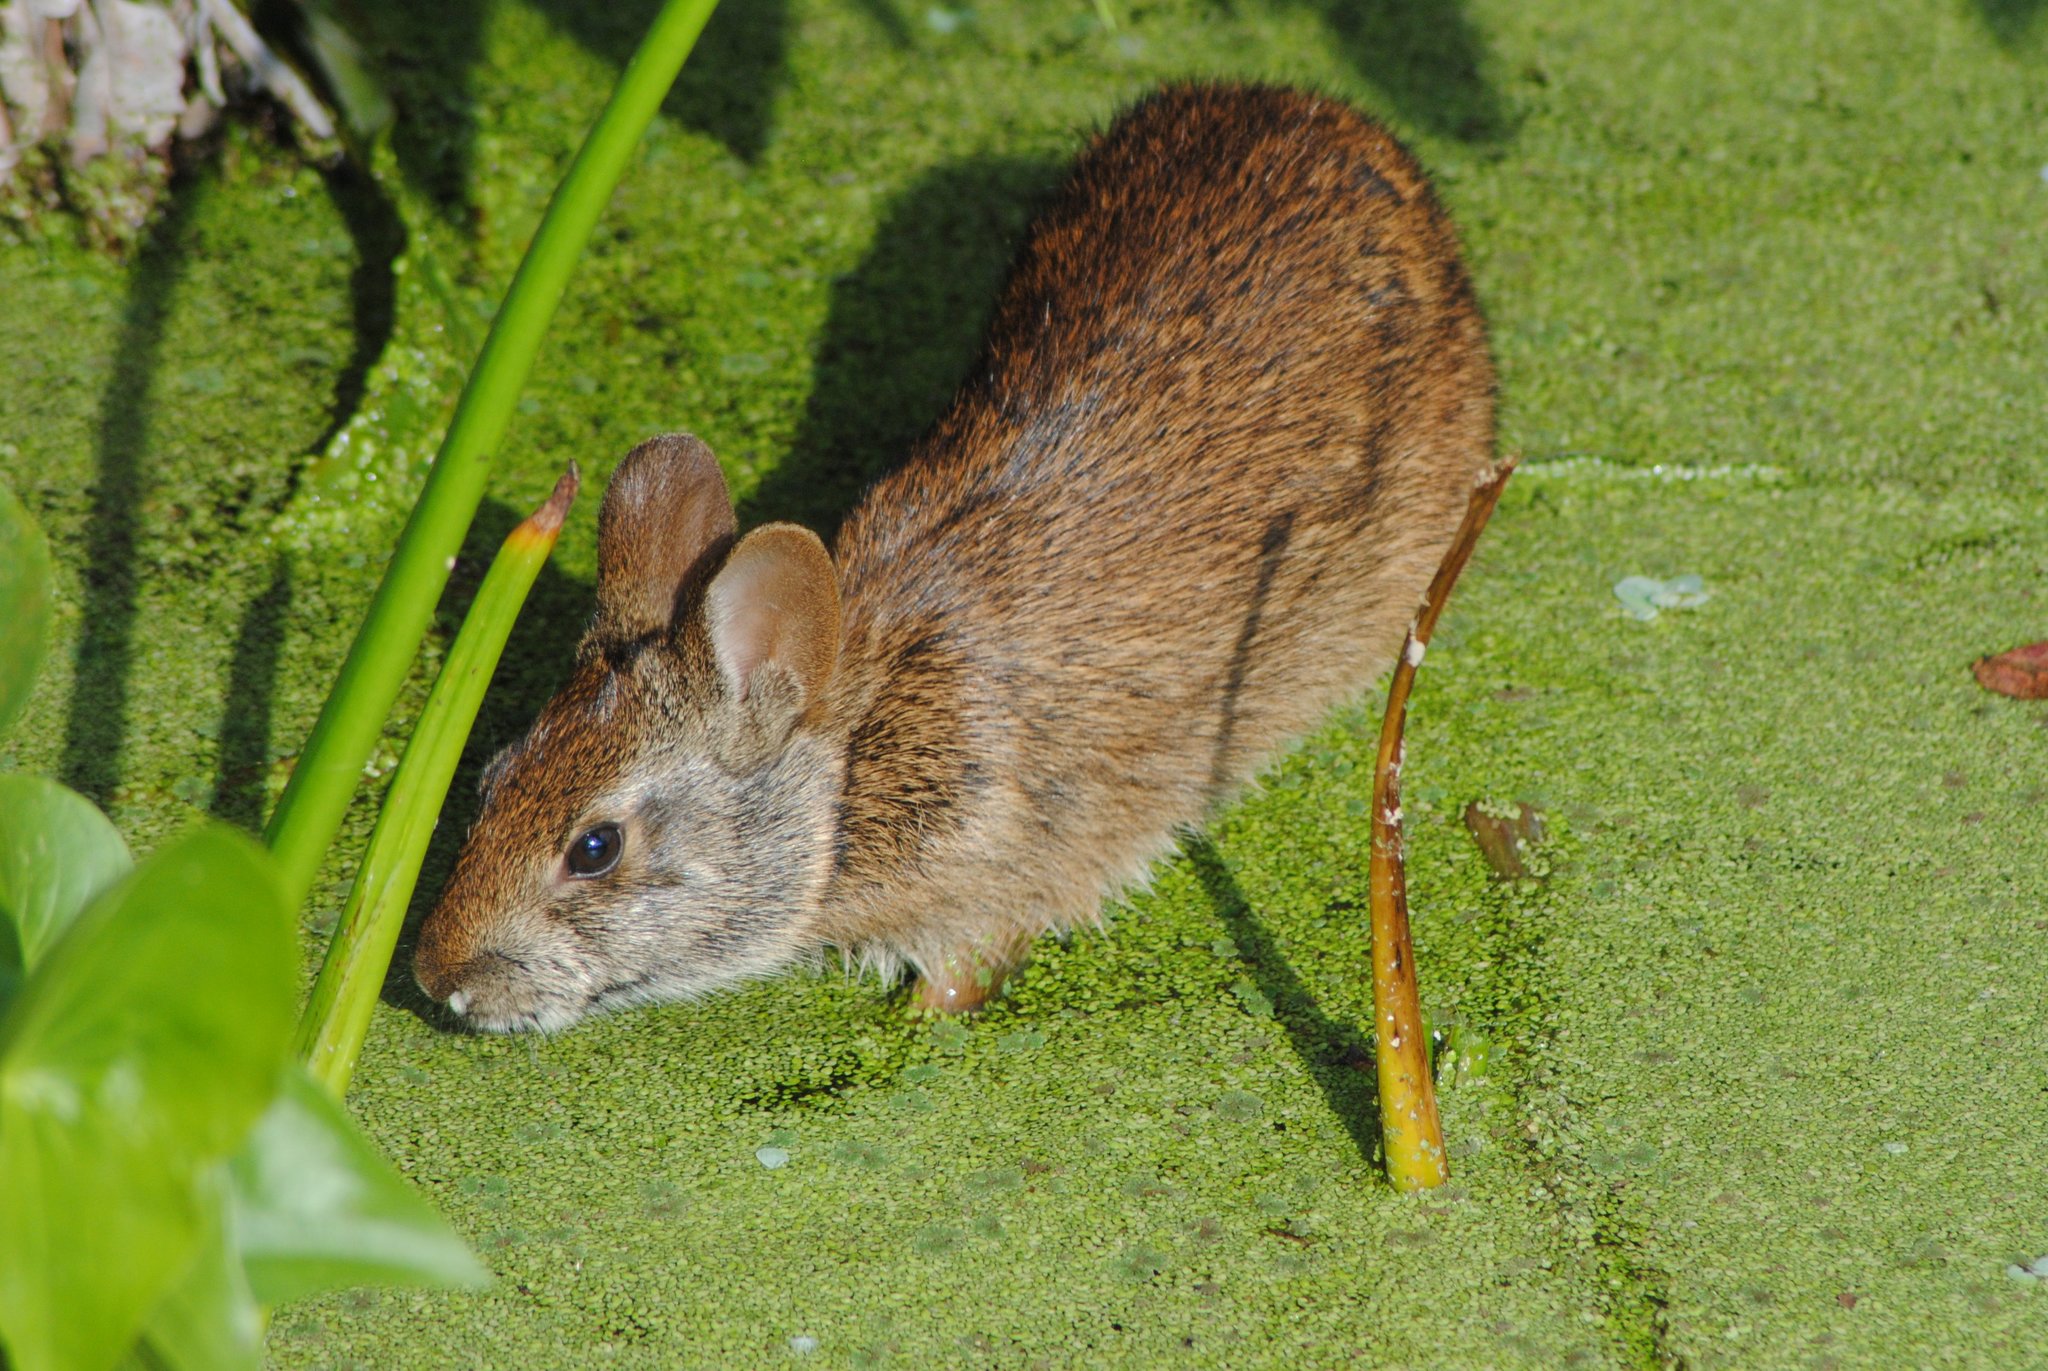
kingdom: Animalia
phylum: Chordata
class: Mammalia
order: Lagomorpha
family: Leporidae
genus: Sylvilagus
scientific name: Sylvilagus palustris
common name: Marsh rabbit
